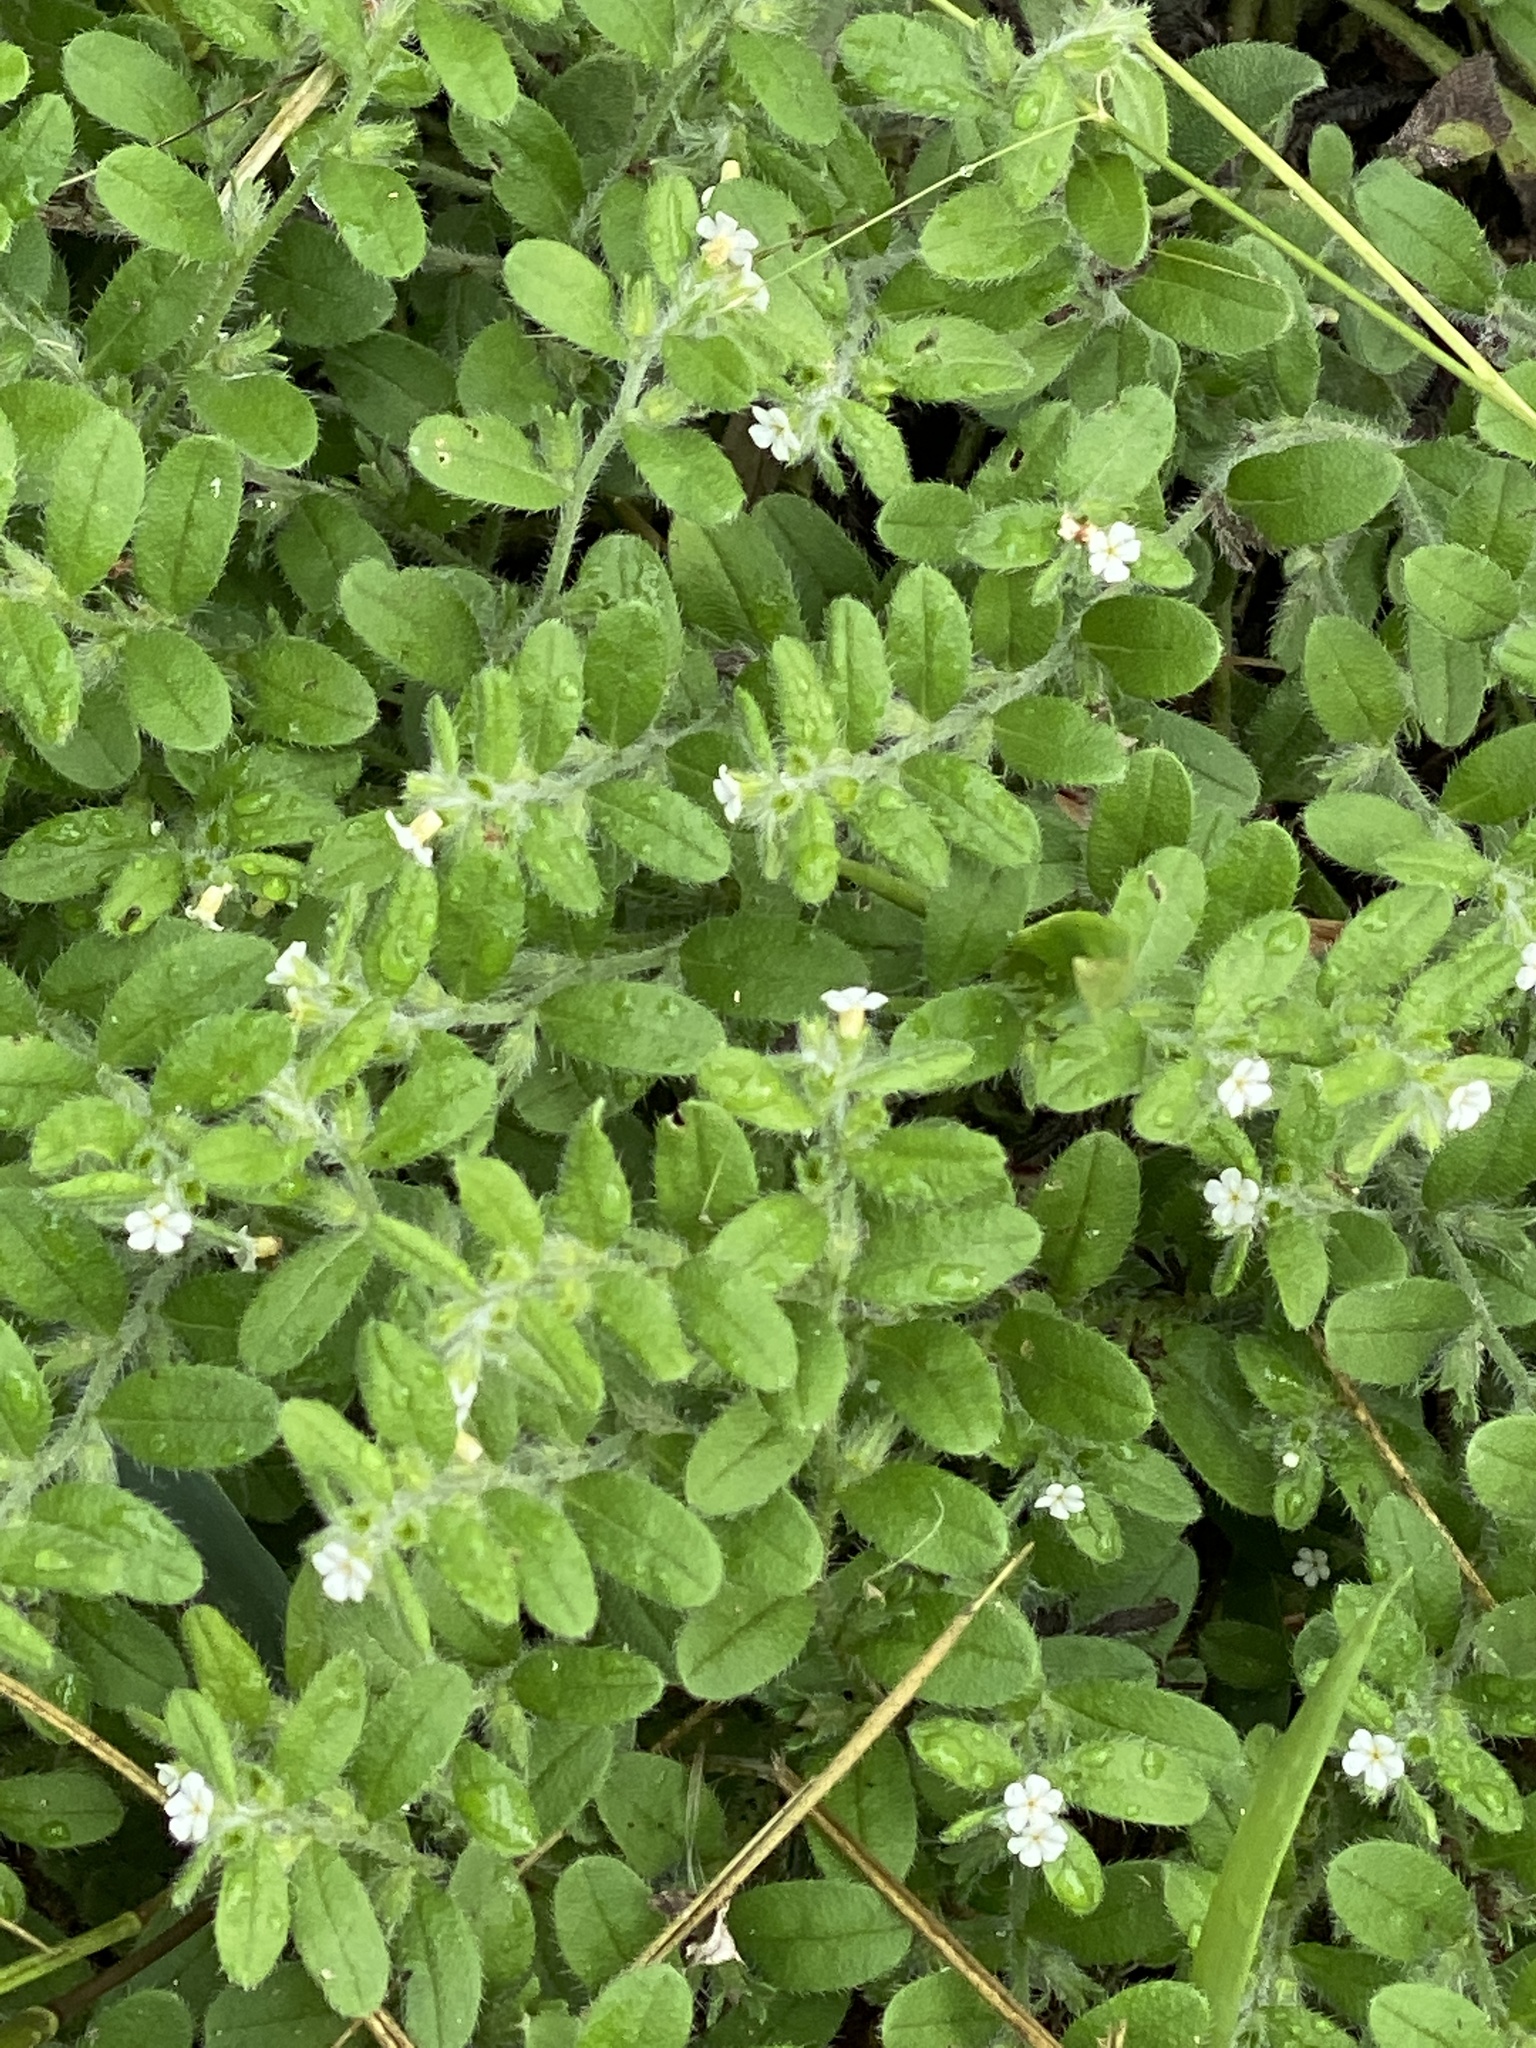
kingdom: Plantae
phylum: Tracheophyta
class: Magnoliopsida
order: Boraginales
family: Boraginaceae
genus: Lithospermum
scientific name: Lithospermum matamorense
